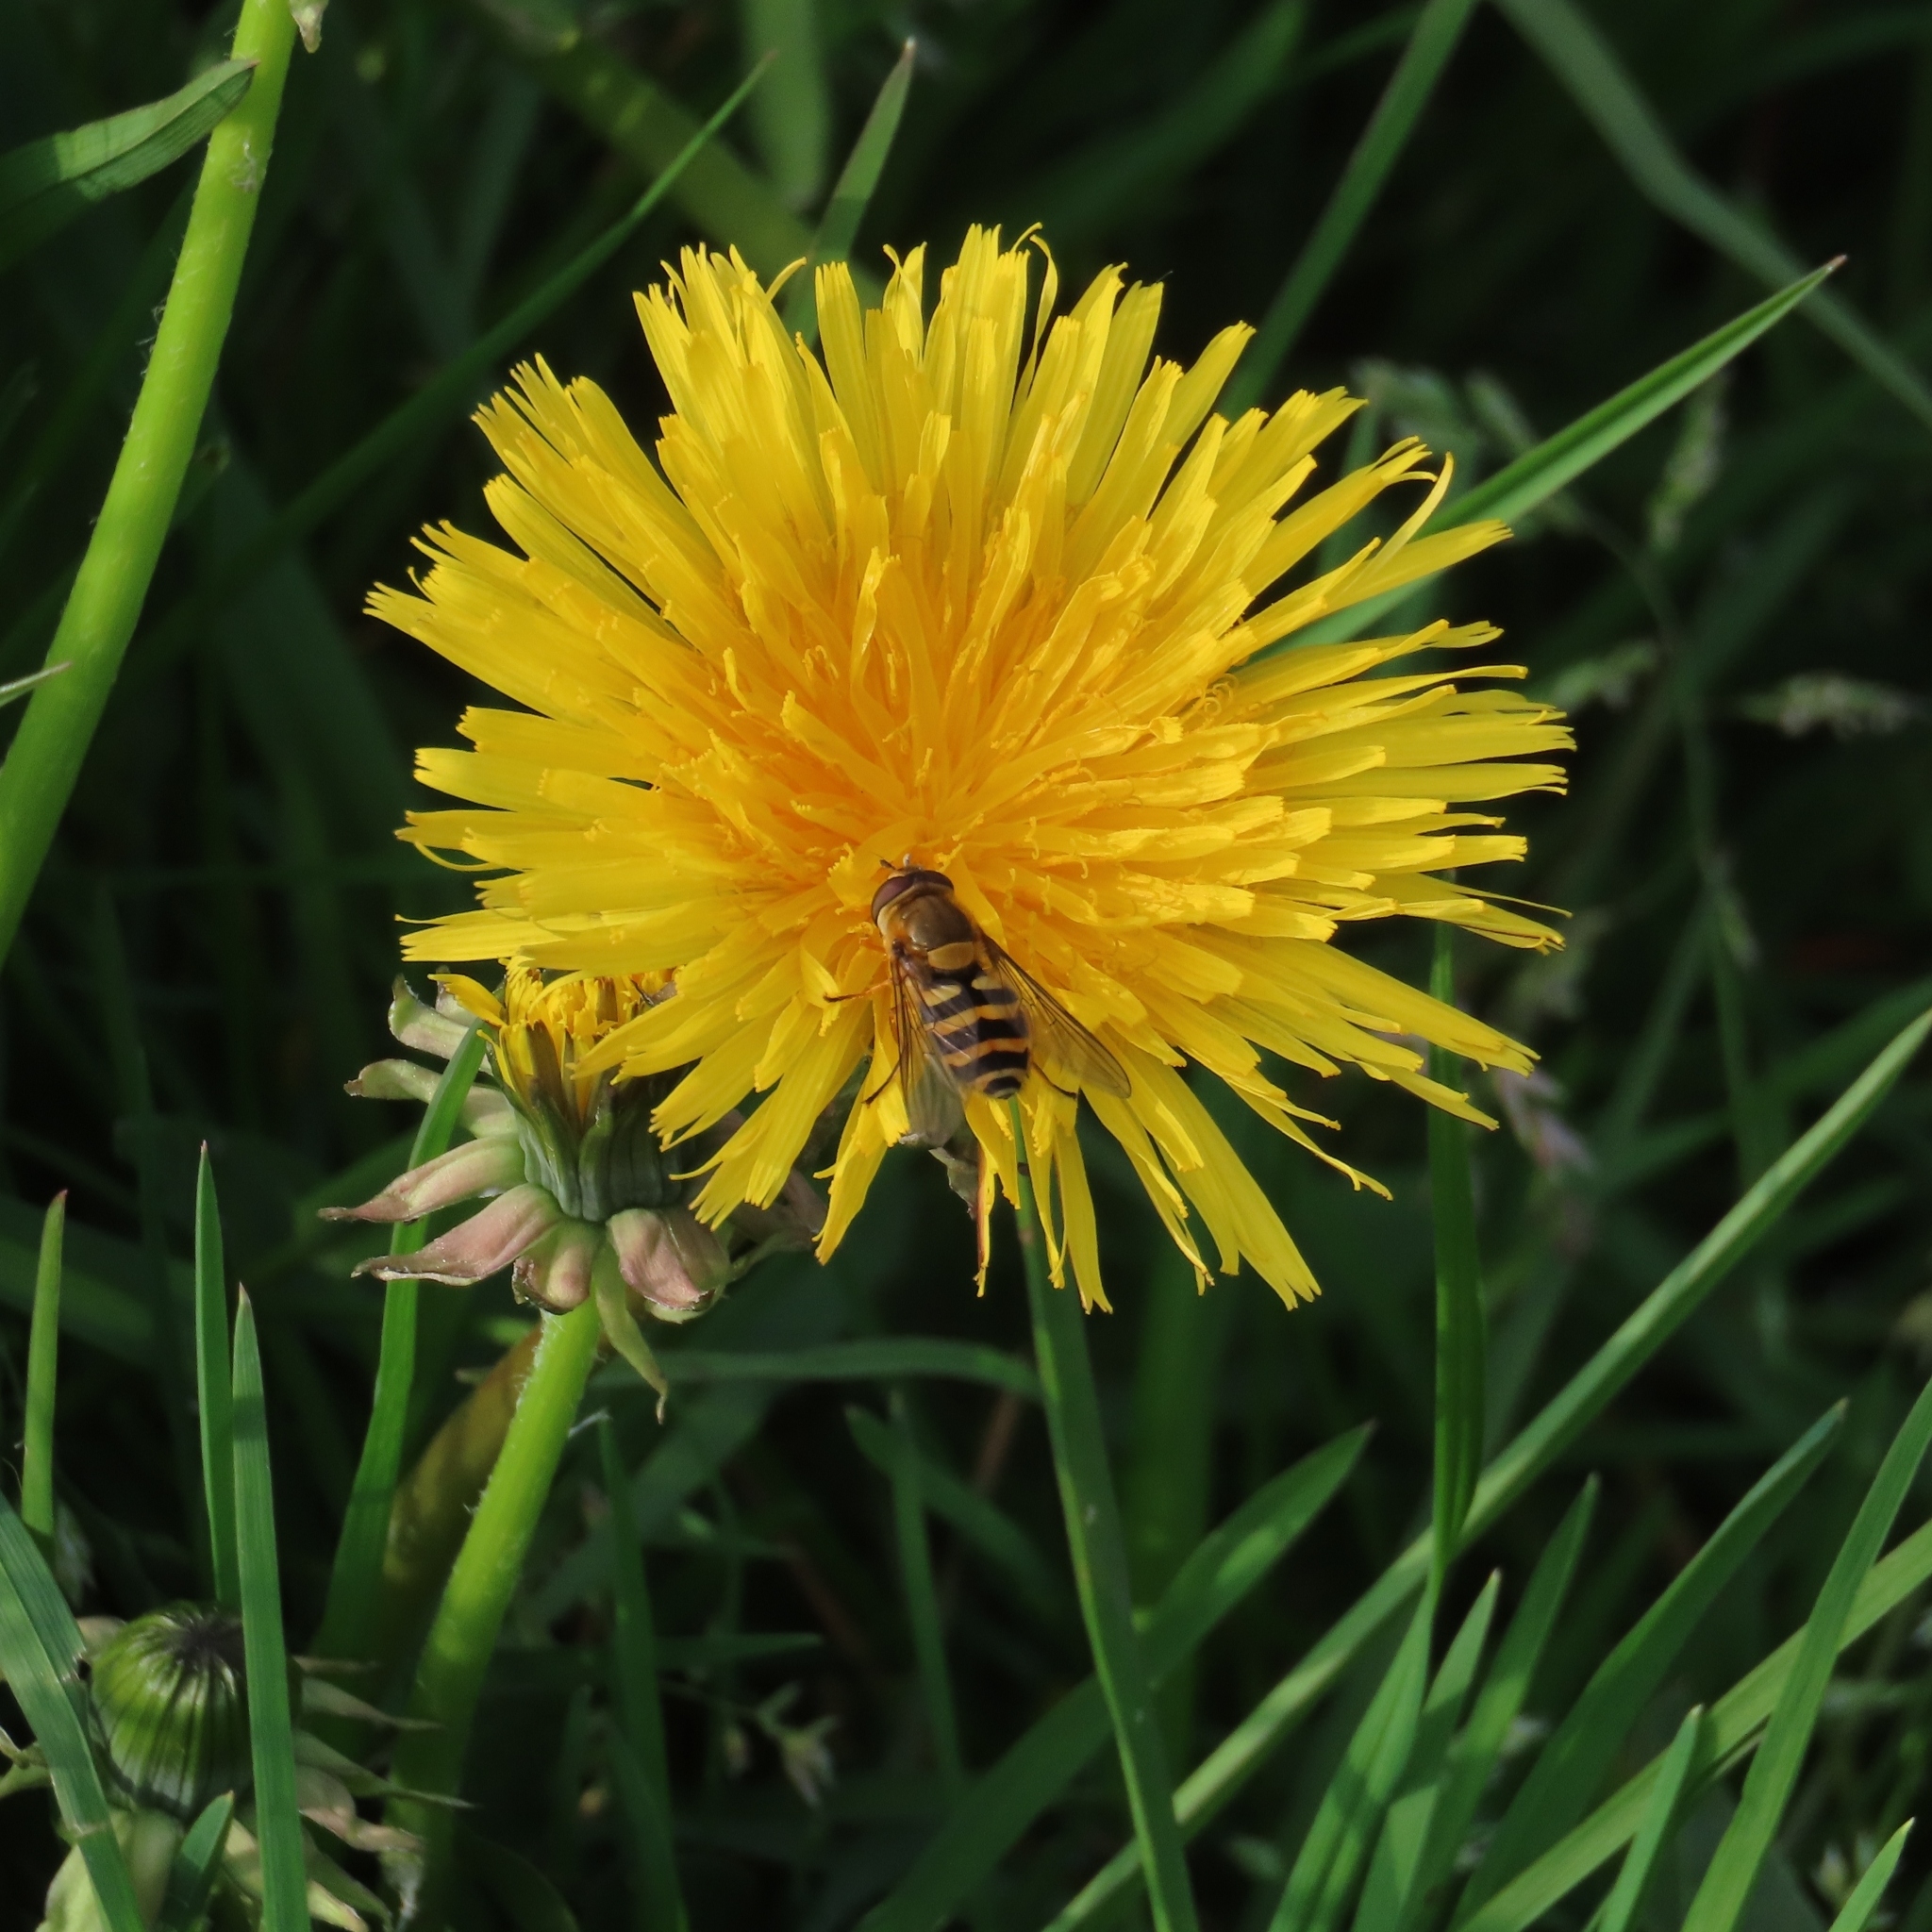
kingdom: Animalia
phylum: Arthropoda
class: Insecta
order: Diptera
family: Syrphidae
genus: Syrphus
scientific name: Syrphus
